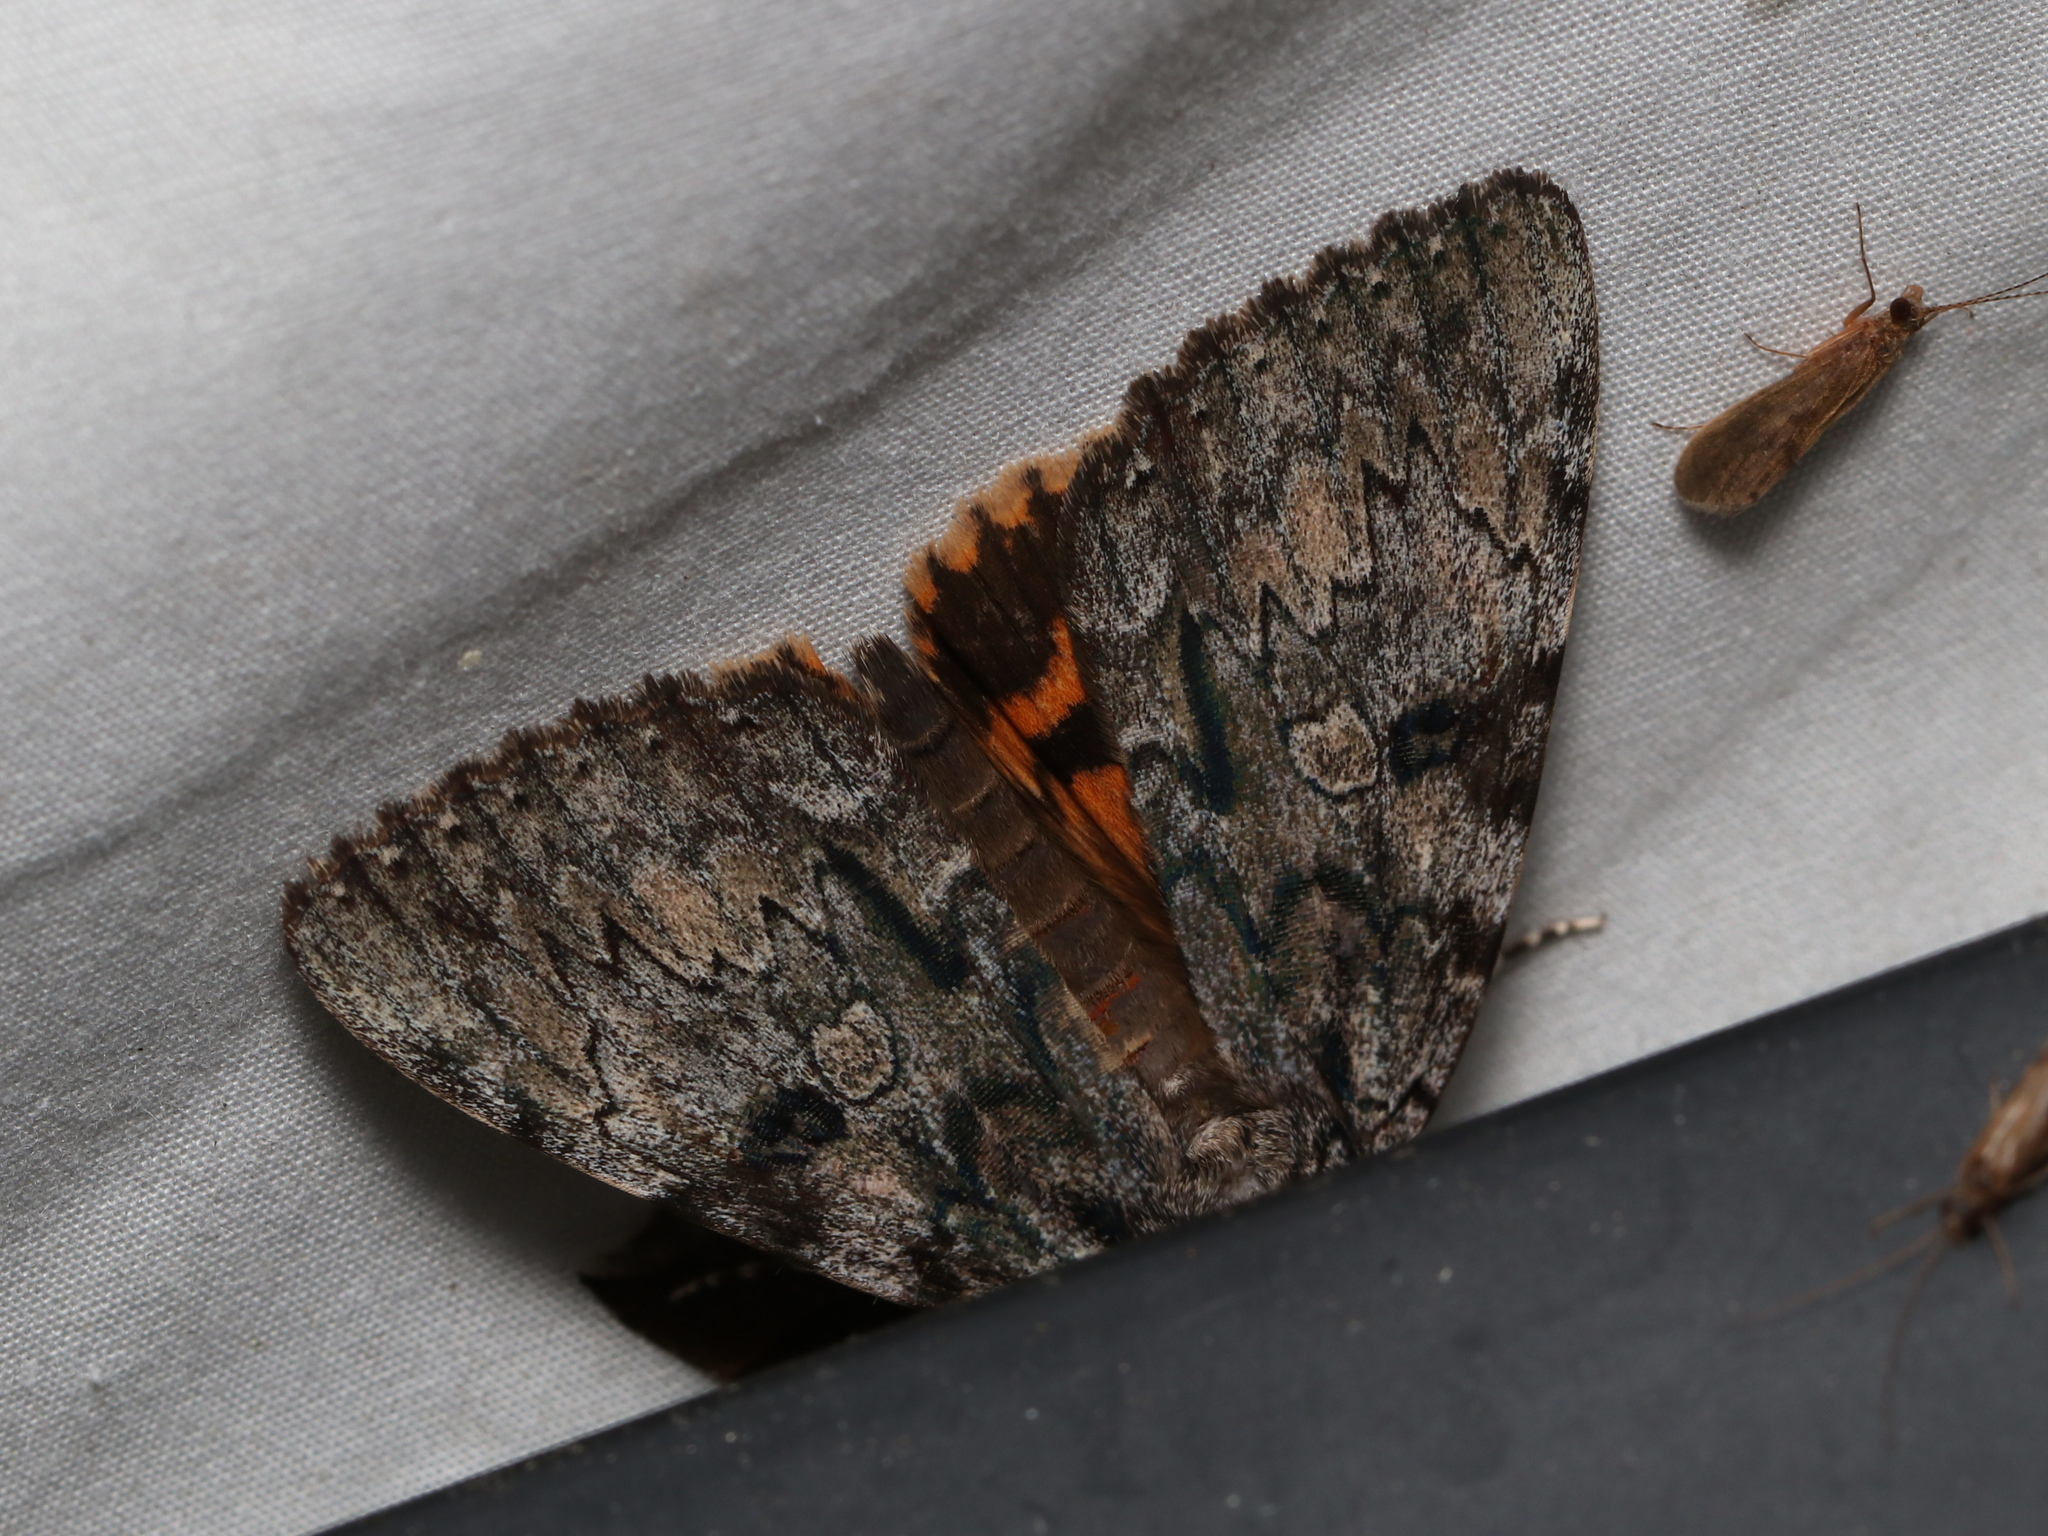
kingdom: Animalia
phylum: Arthropoda
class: Insecta
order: Lepidoptera
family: Erebidae
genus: Catocala
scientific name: Catocala palaeogama
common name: Oldwife underwing
